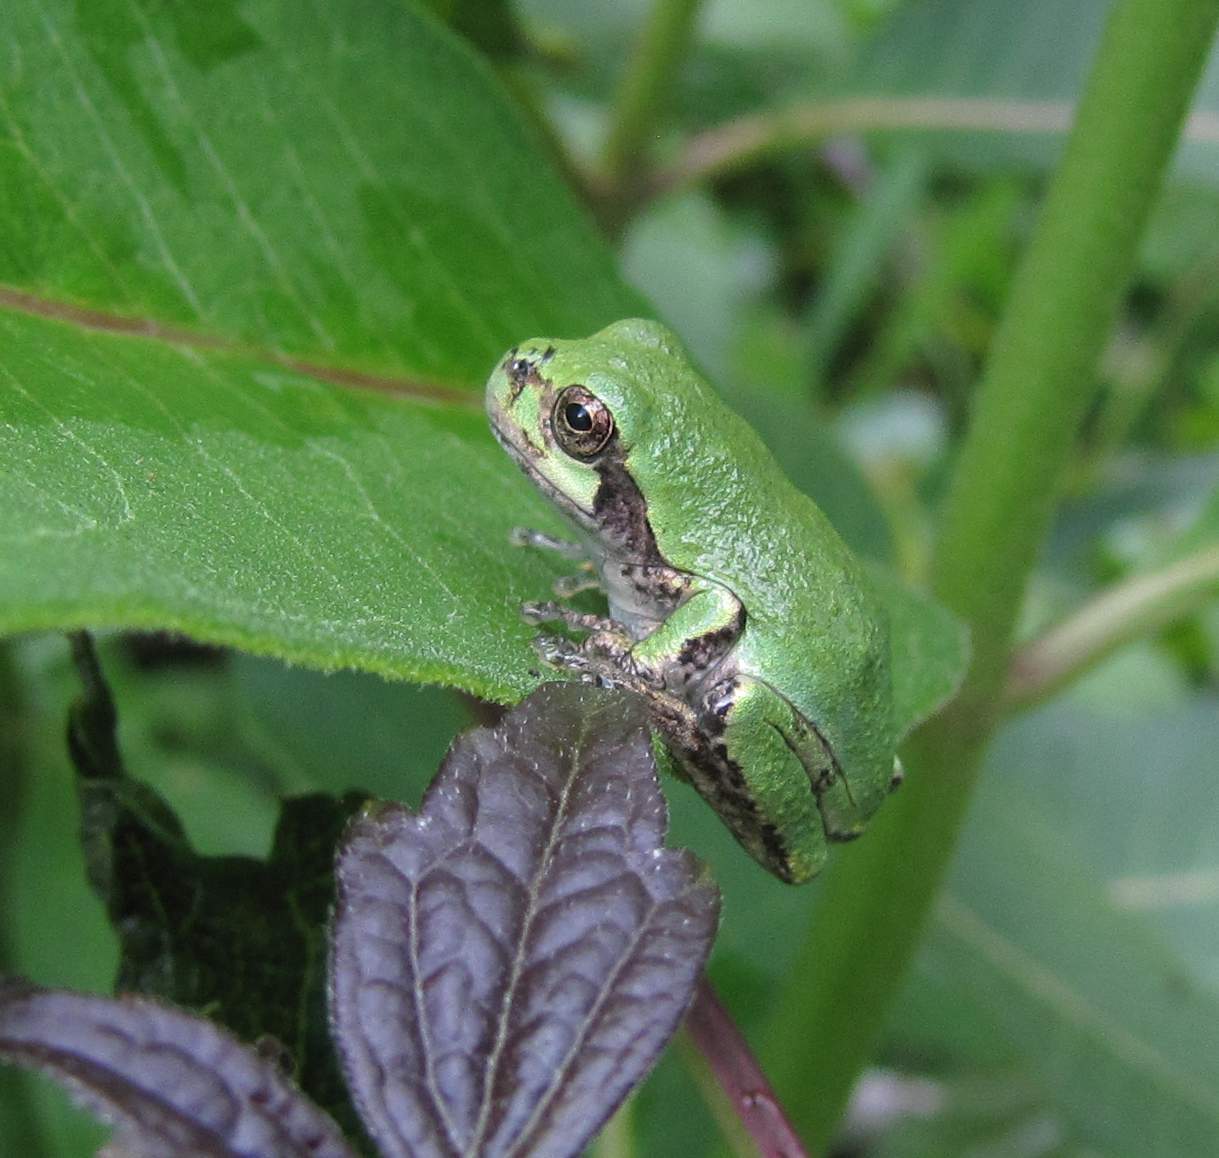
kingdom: Animalia
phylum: Chordata
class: Amphibia
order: Anura
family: Hylidae
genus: Dryophytes
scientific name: Dryophytes versicolor
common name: Gray treefrog
